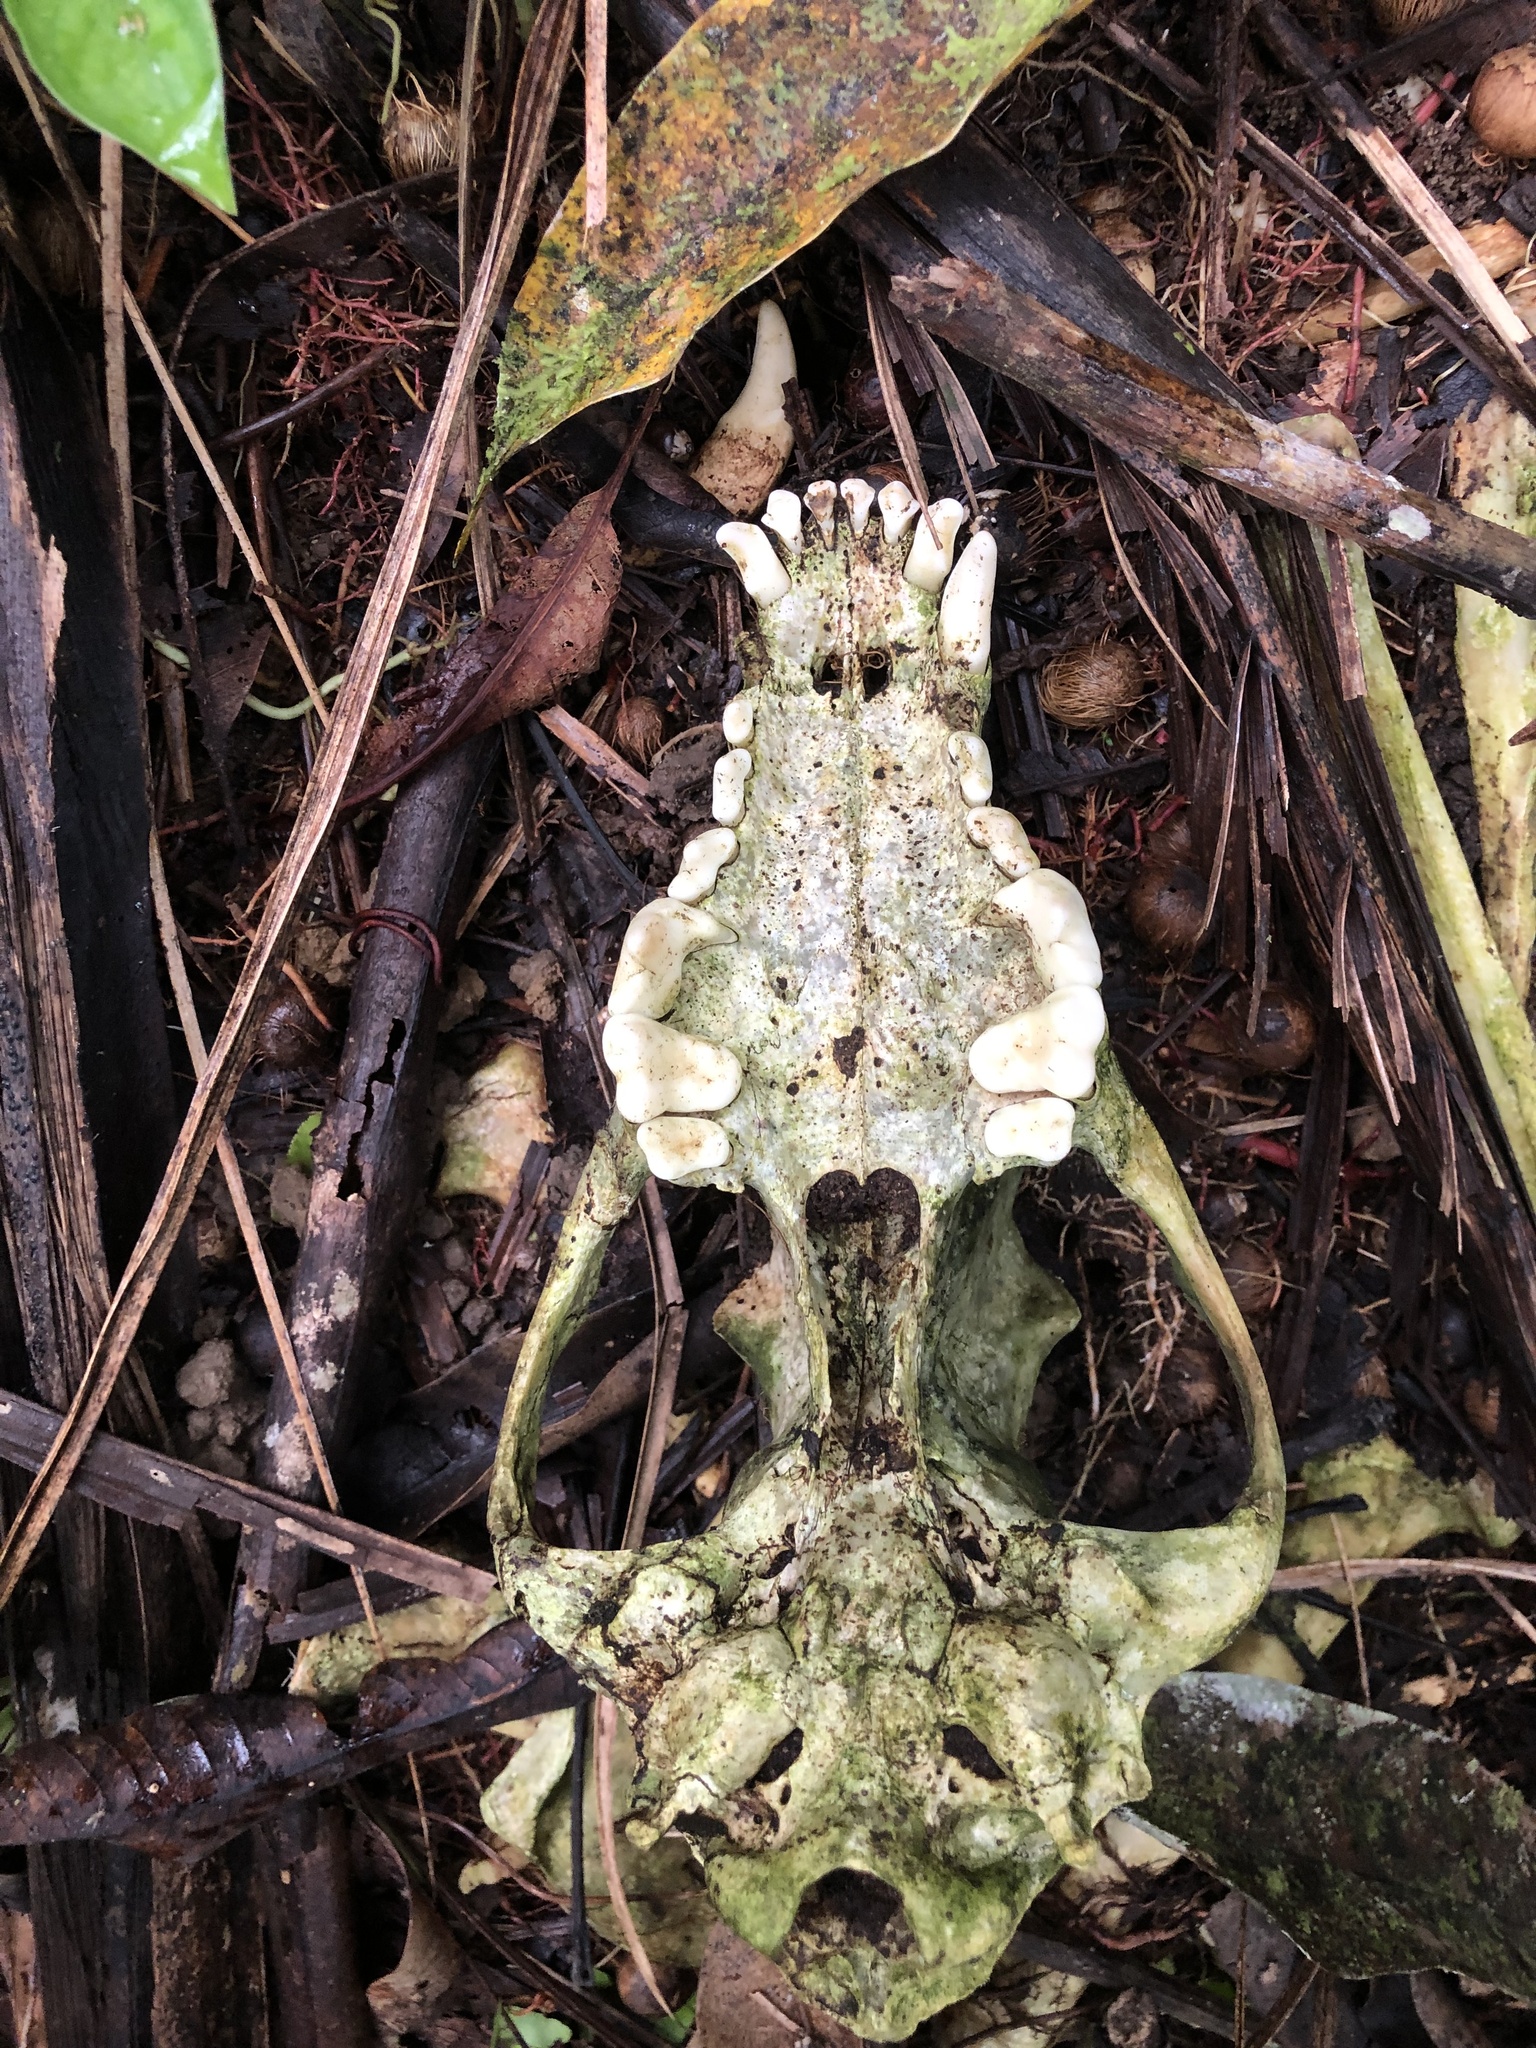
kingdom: Animalia
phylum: Chordata
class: Mammalia
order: Carnivora
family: Canidae
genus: Canis
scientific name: Canis lupus
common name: Gray wolf
